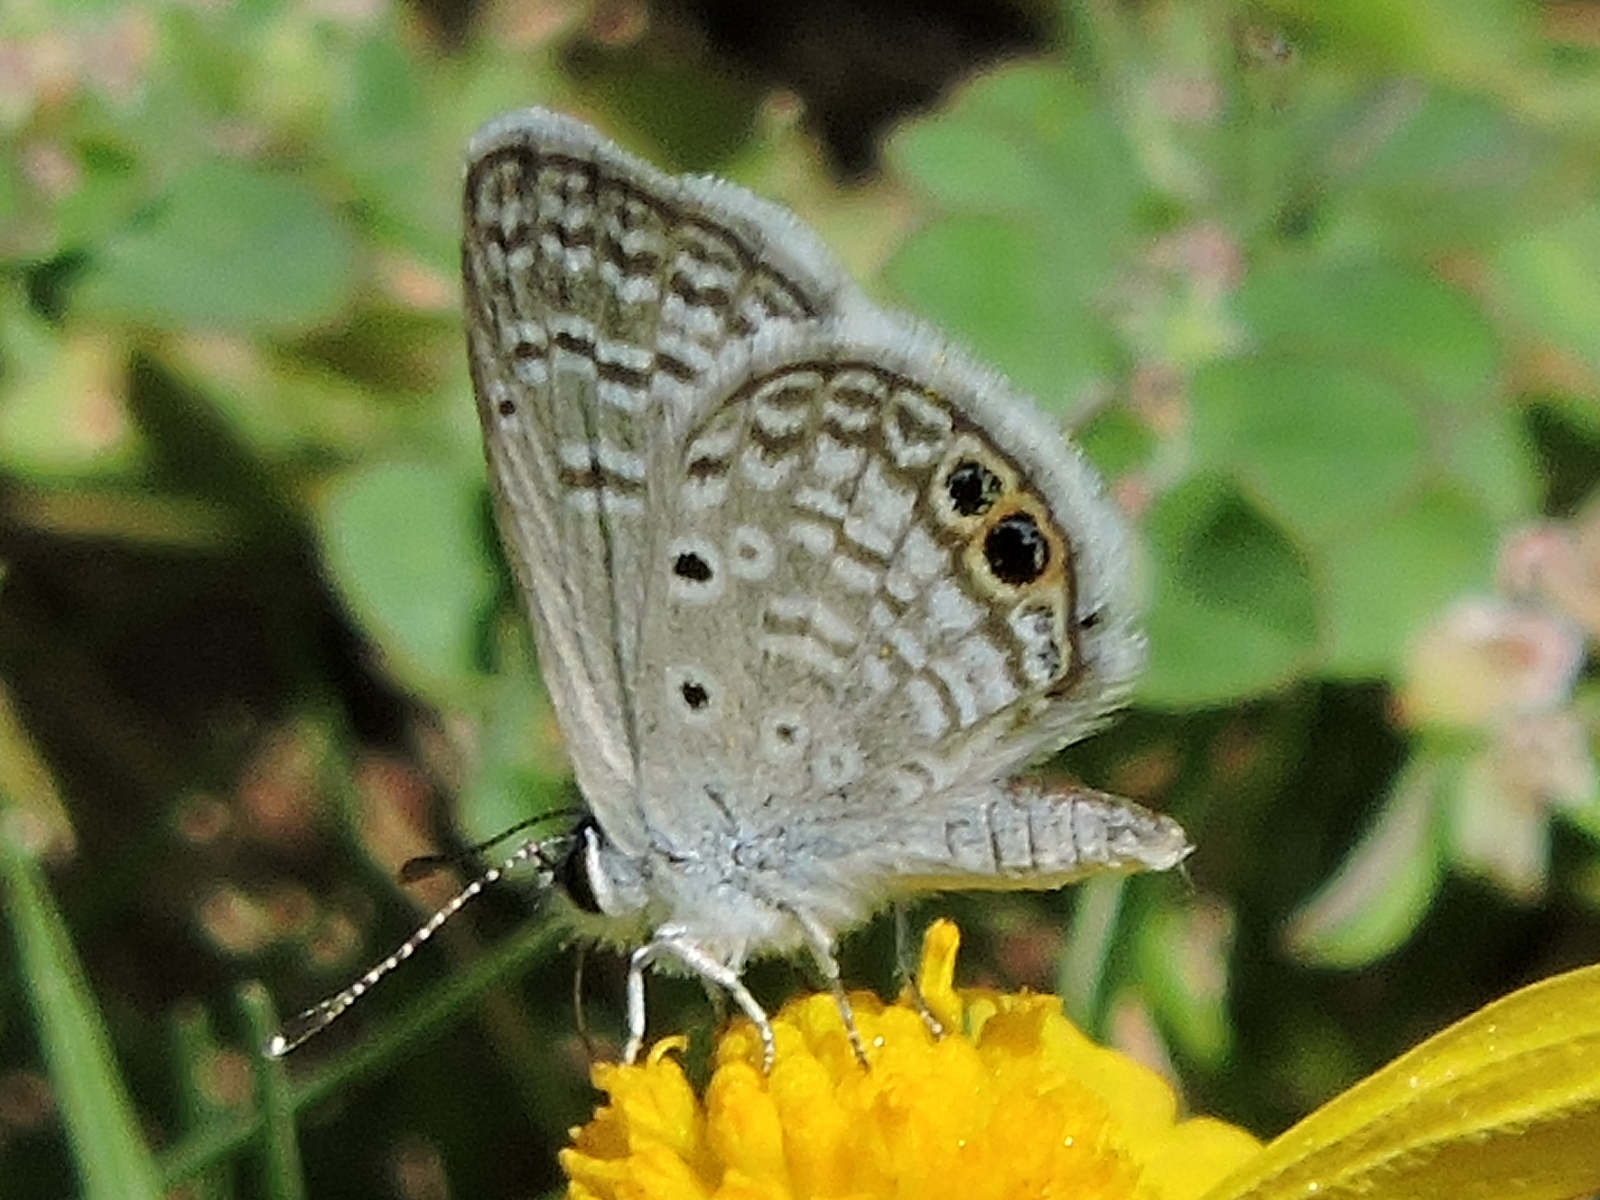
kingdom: Animalia
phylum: Arthropoda
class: Insecta
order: Lepidoptera
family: Lycaenidae
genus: Hemiargus
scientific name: Hemiargus ceraunus
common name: Ceraunus blue
